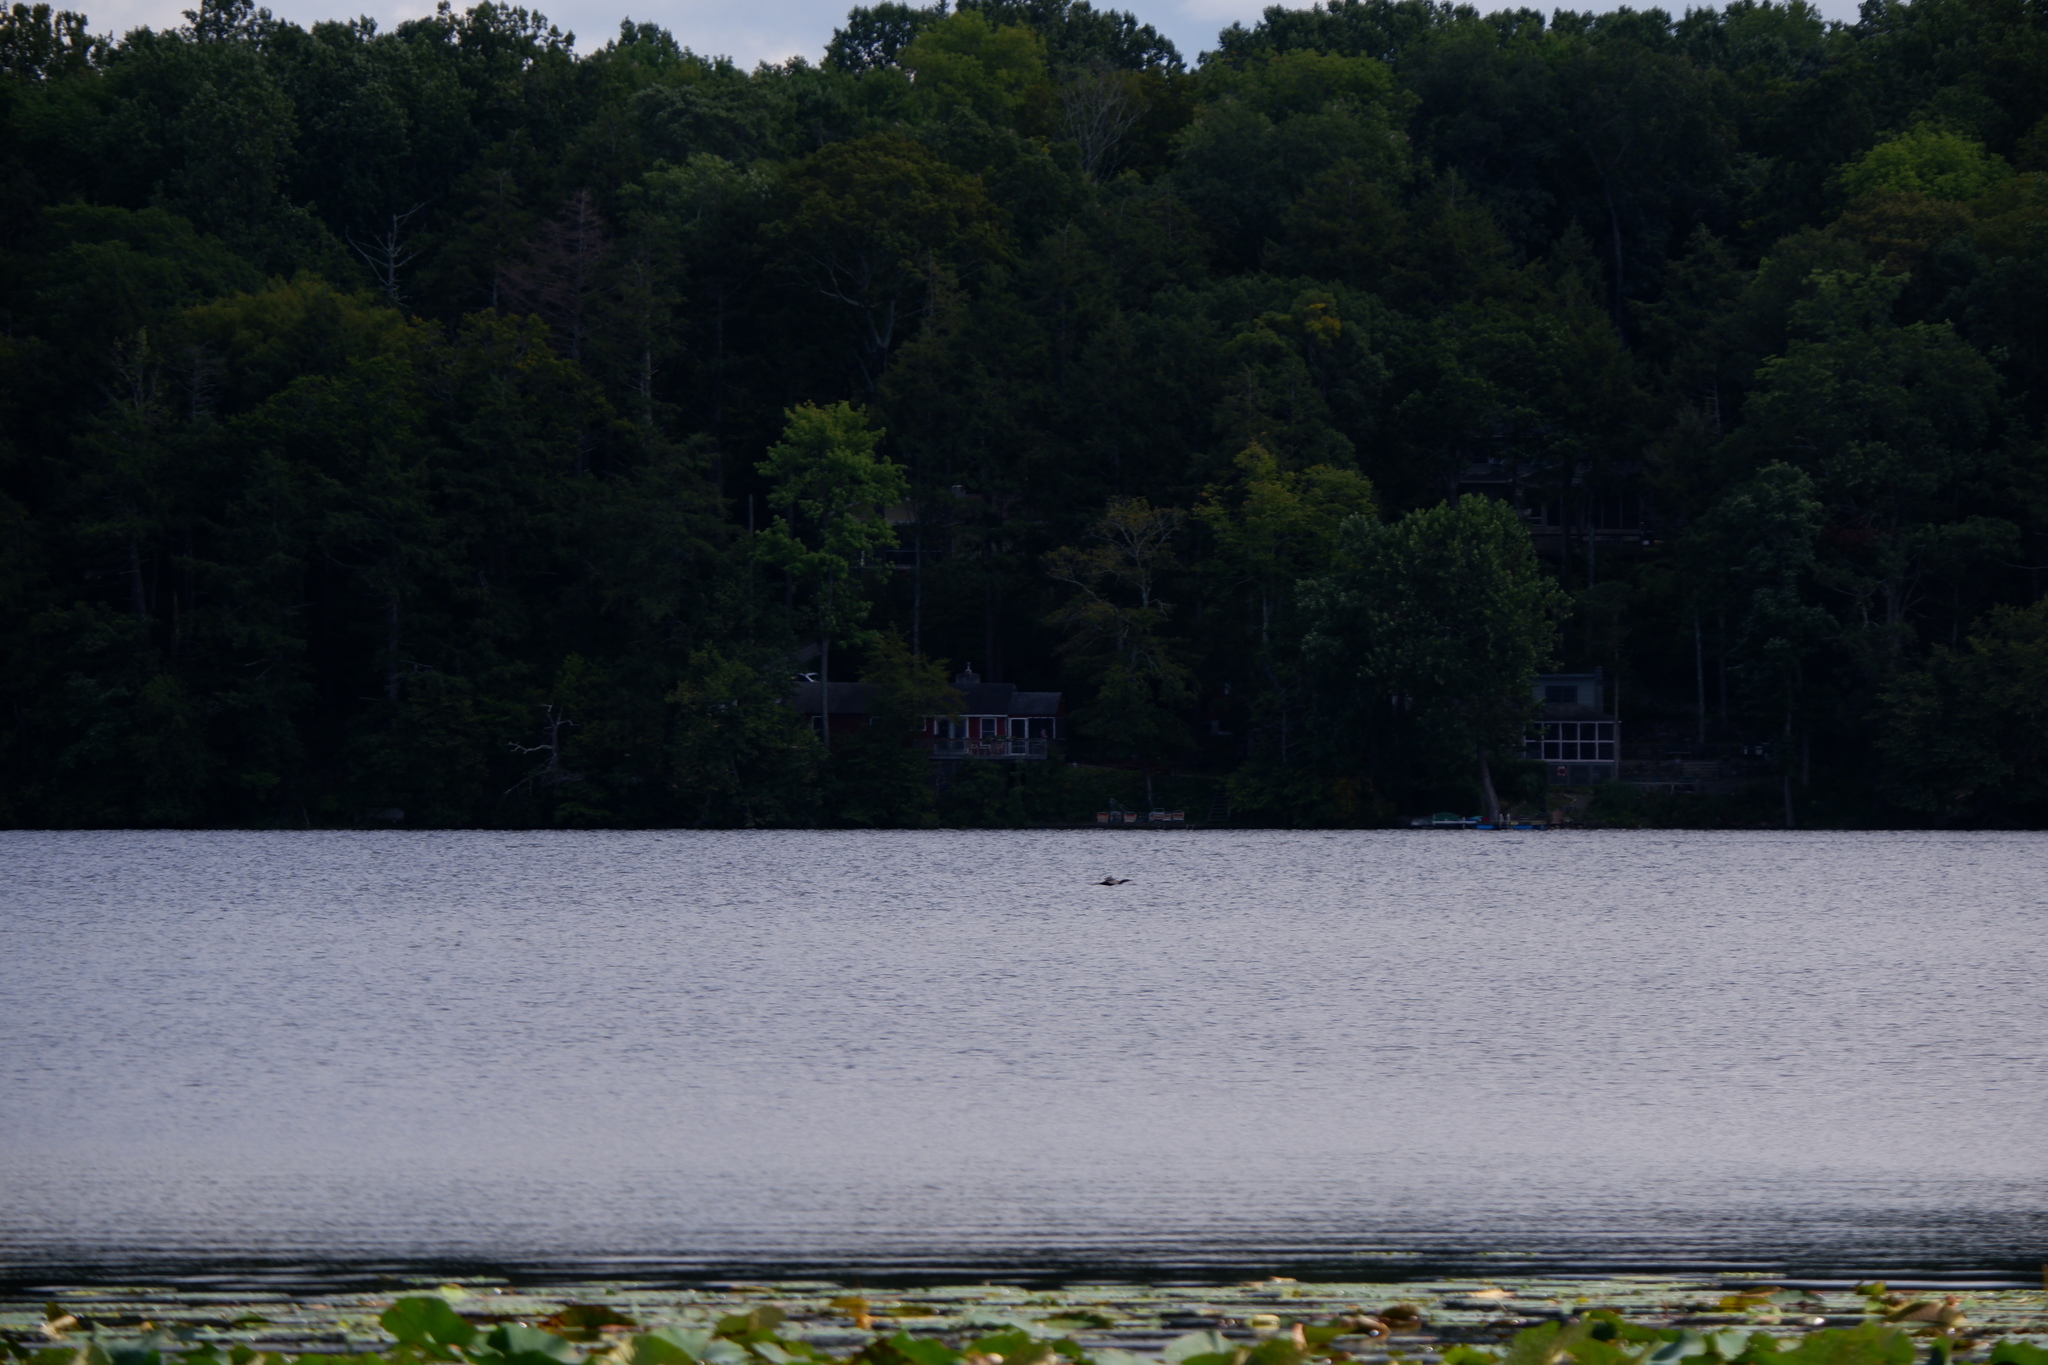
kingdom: Animalia
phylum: Chordata
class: Aves
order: Suliformes
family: Phalacrocoracidae
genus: Phalacrocorax
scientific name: Phalacrocorax auritus
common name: Double-crested cormorant
